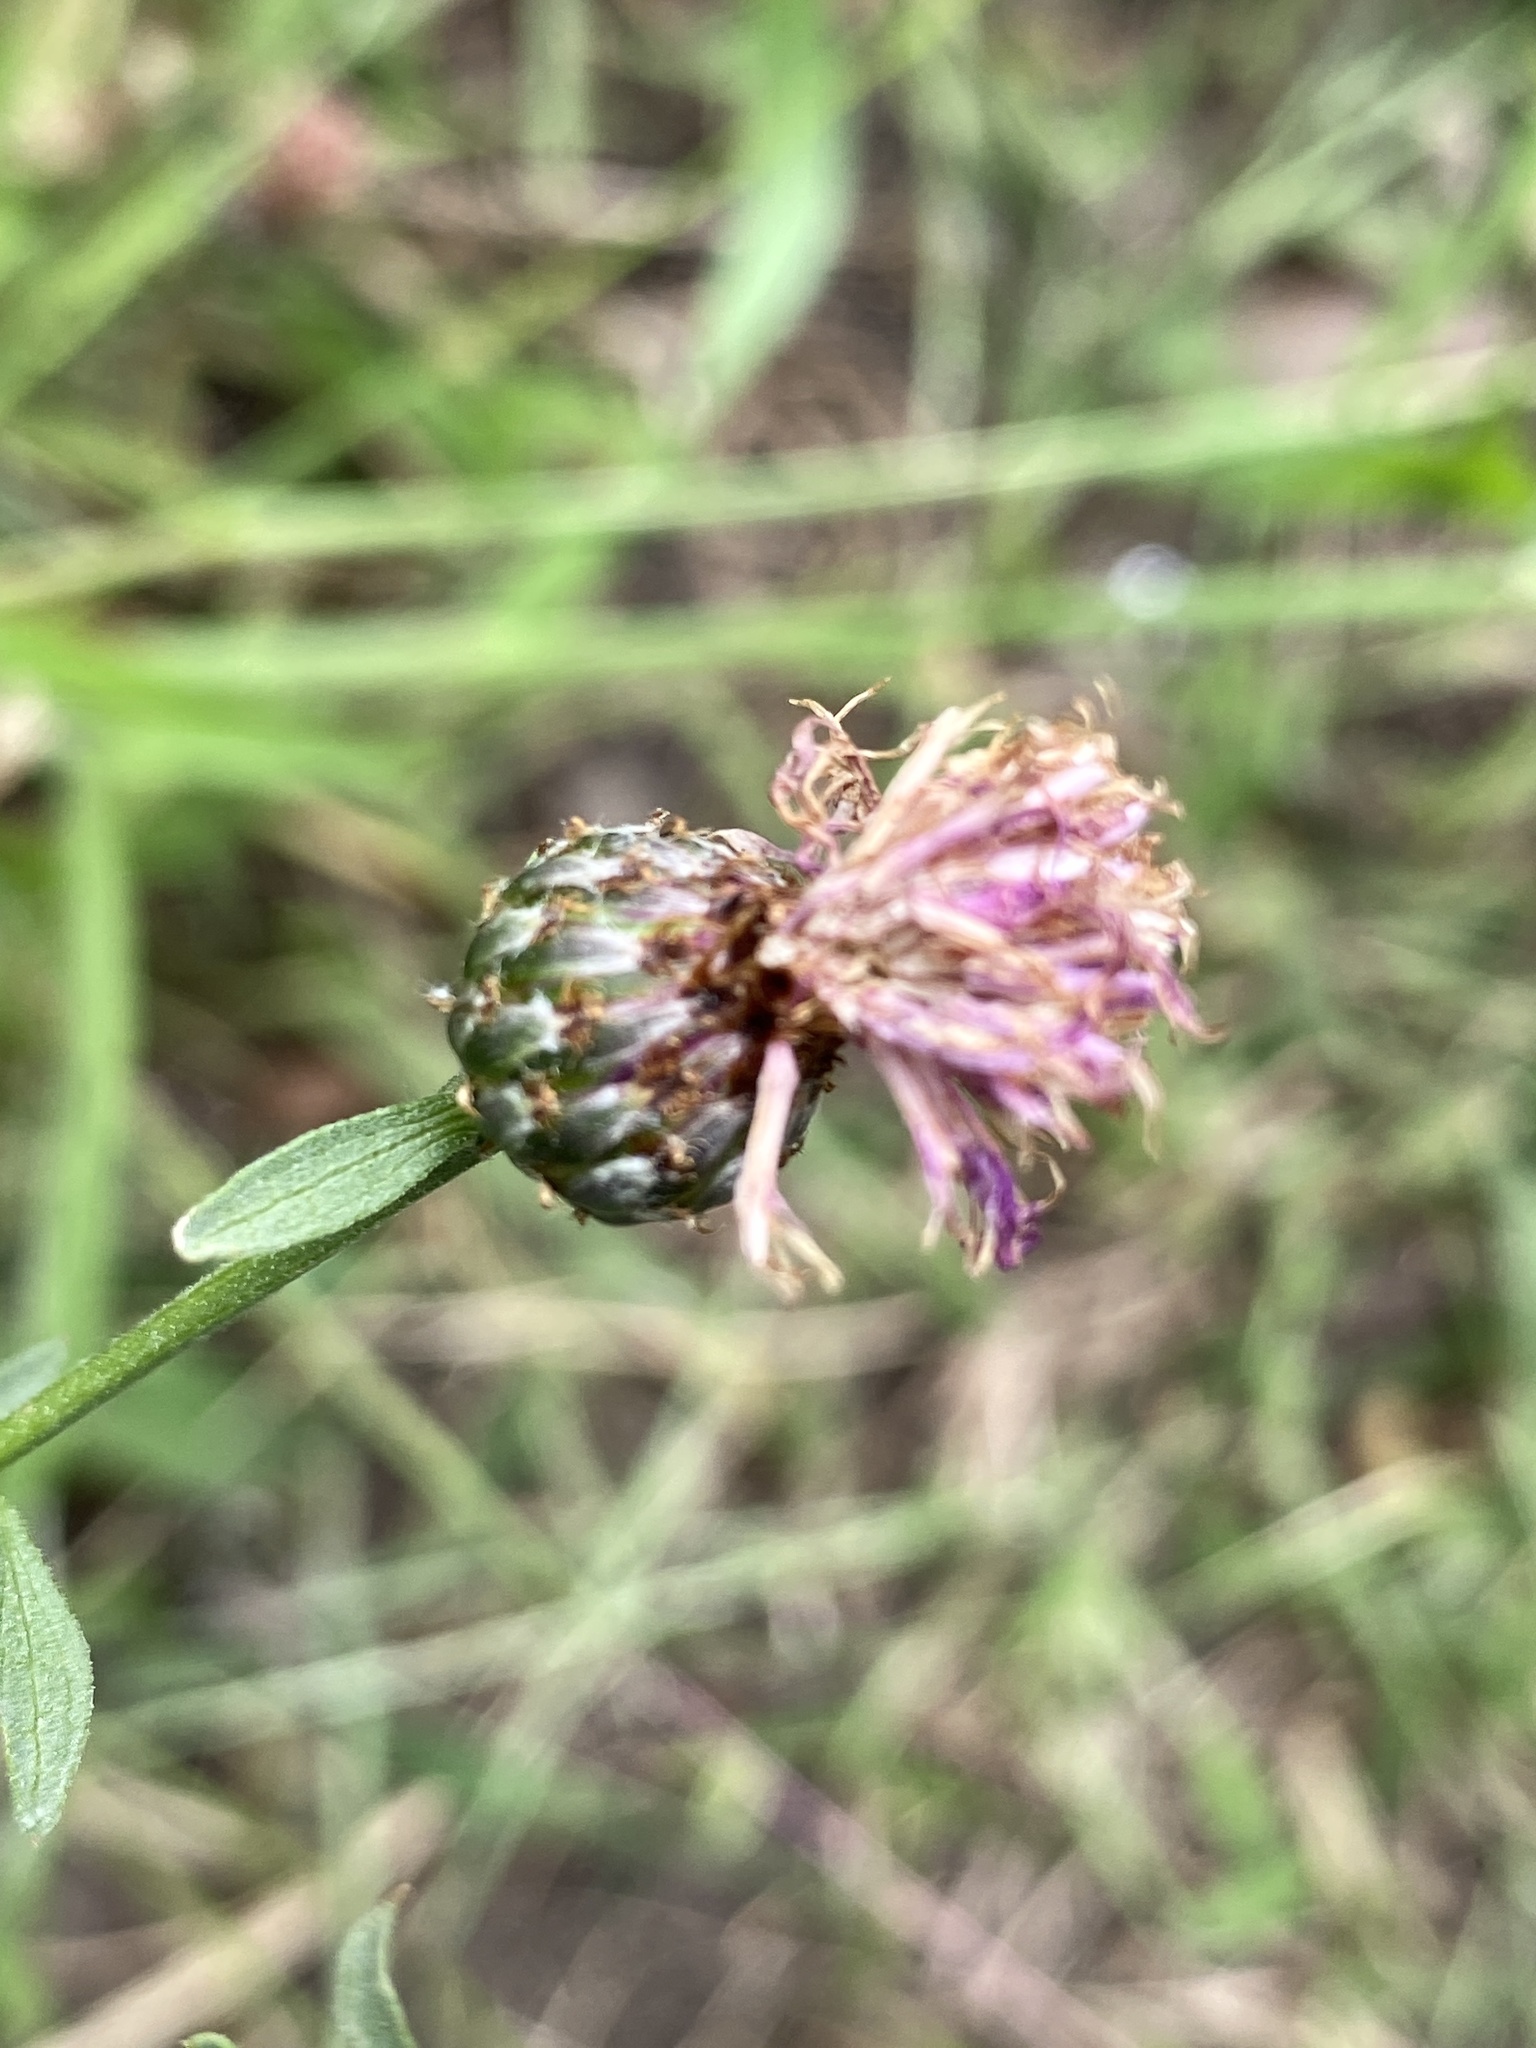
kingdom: Plantae
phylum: Tracheophyta
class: Magnoliopsida
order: Asterales
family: Asteraceae
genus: Centaurea
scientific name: Centaurea nigrescens
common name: Tyrol knapweed
